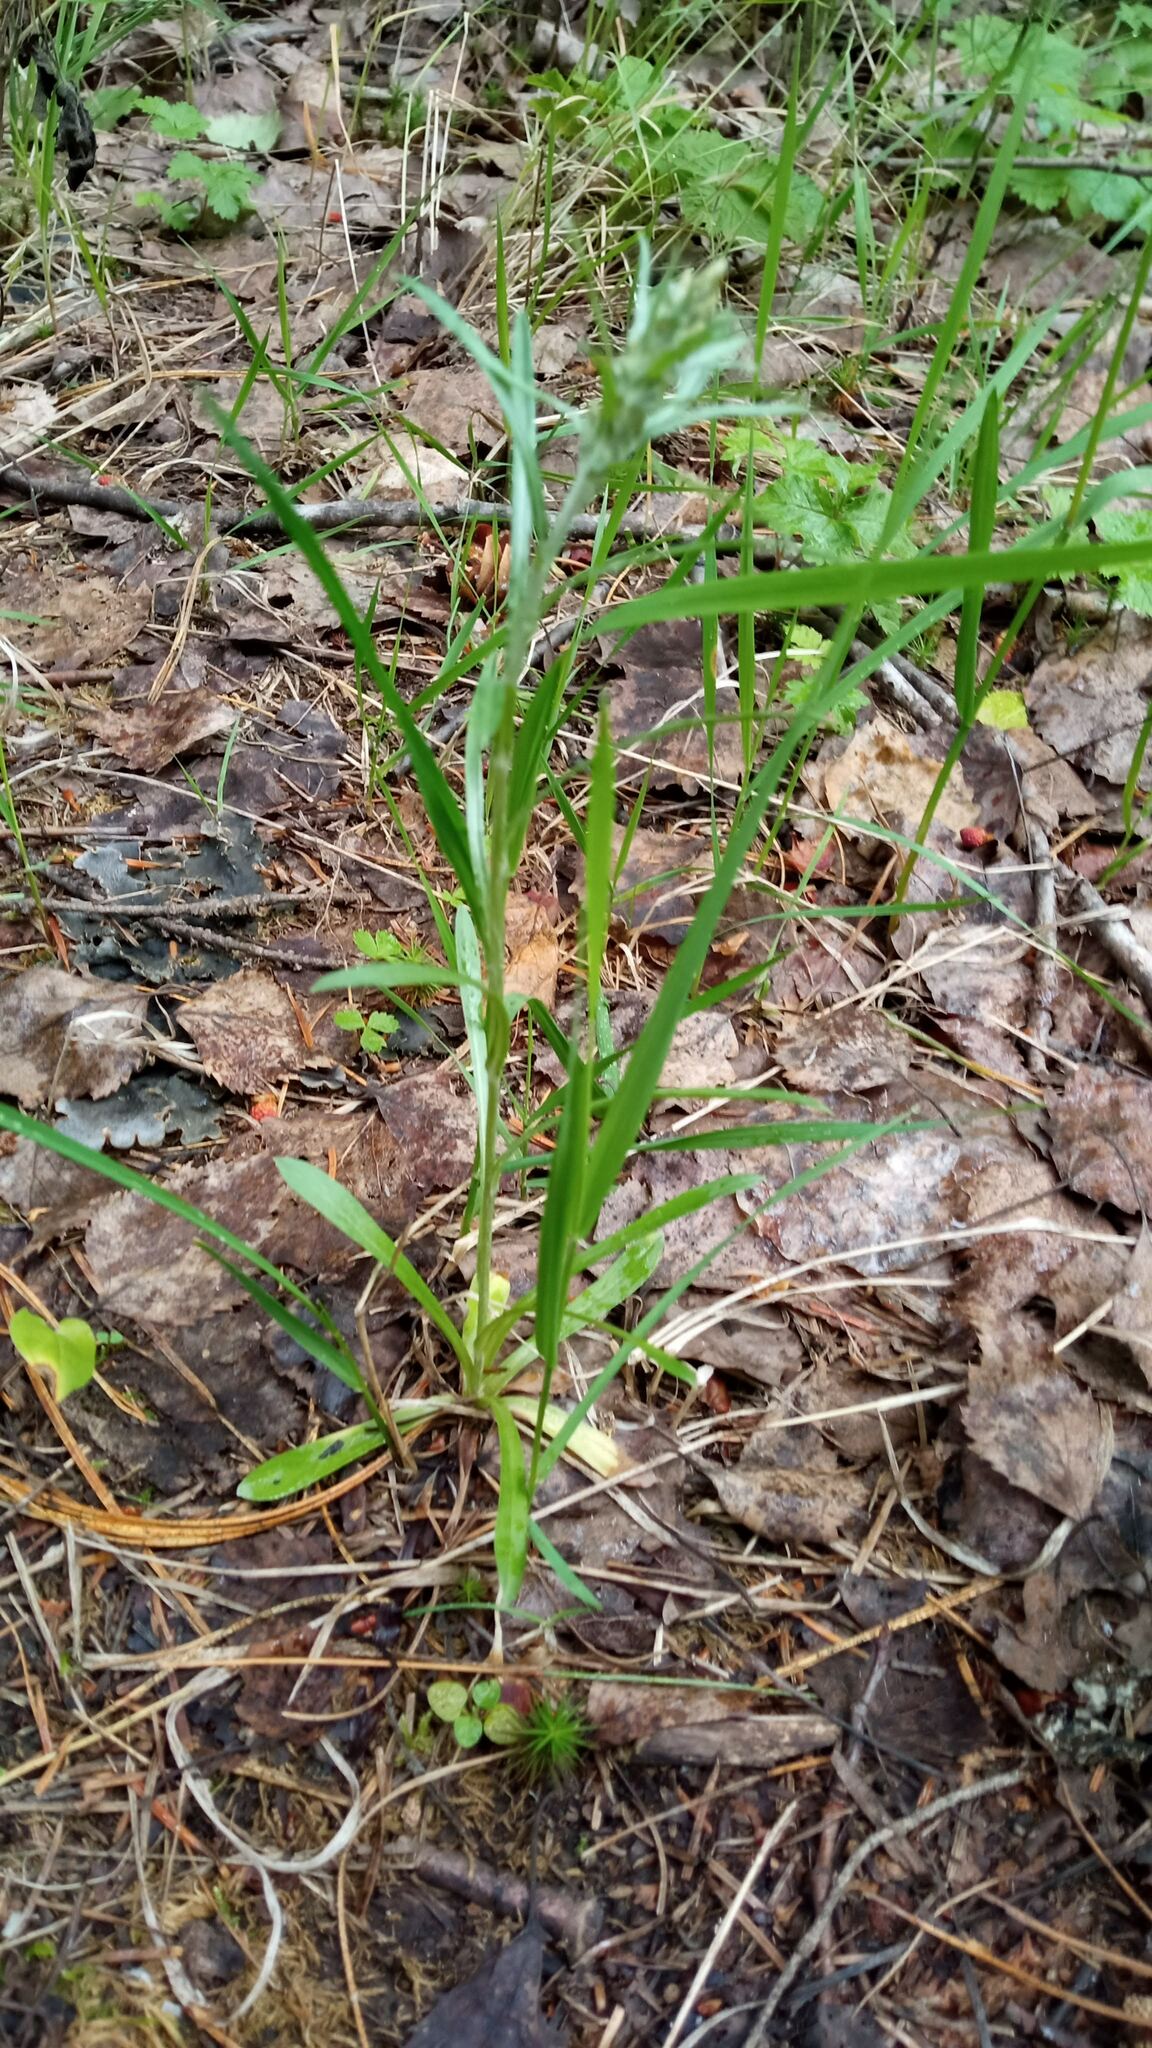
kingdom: Plantae
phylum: Tracheophyta
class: Magnoliopsida
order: Asterales
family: Asteraceae
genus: Omalotheca
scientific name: Omalotheca sylvatica
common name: Heath cudweed
